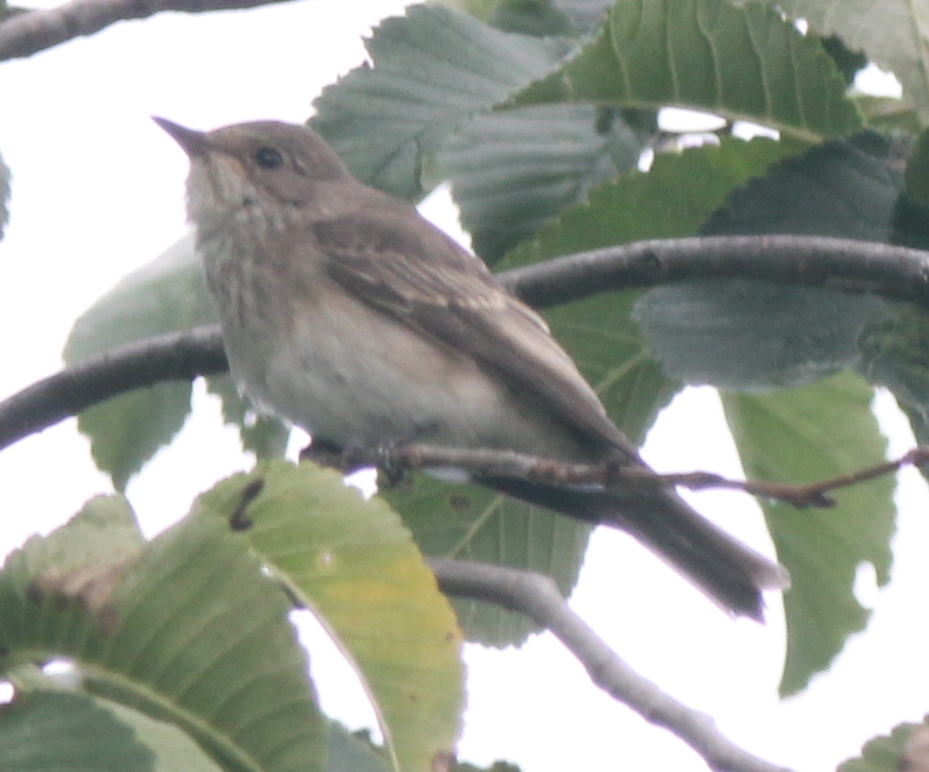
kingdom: Animalia
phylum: Chordata
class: Aves
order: Passeriformes
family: Muscicapidae
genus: Muscicapa
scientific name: Muscicapa striata
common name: Spotted flycatcher
